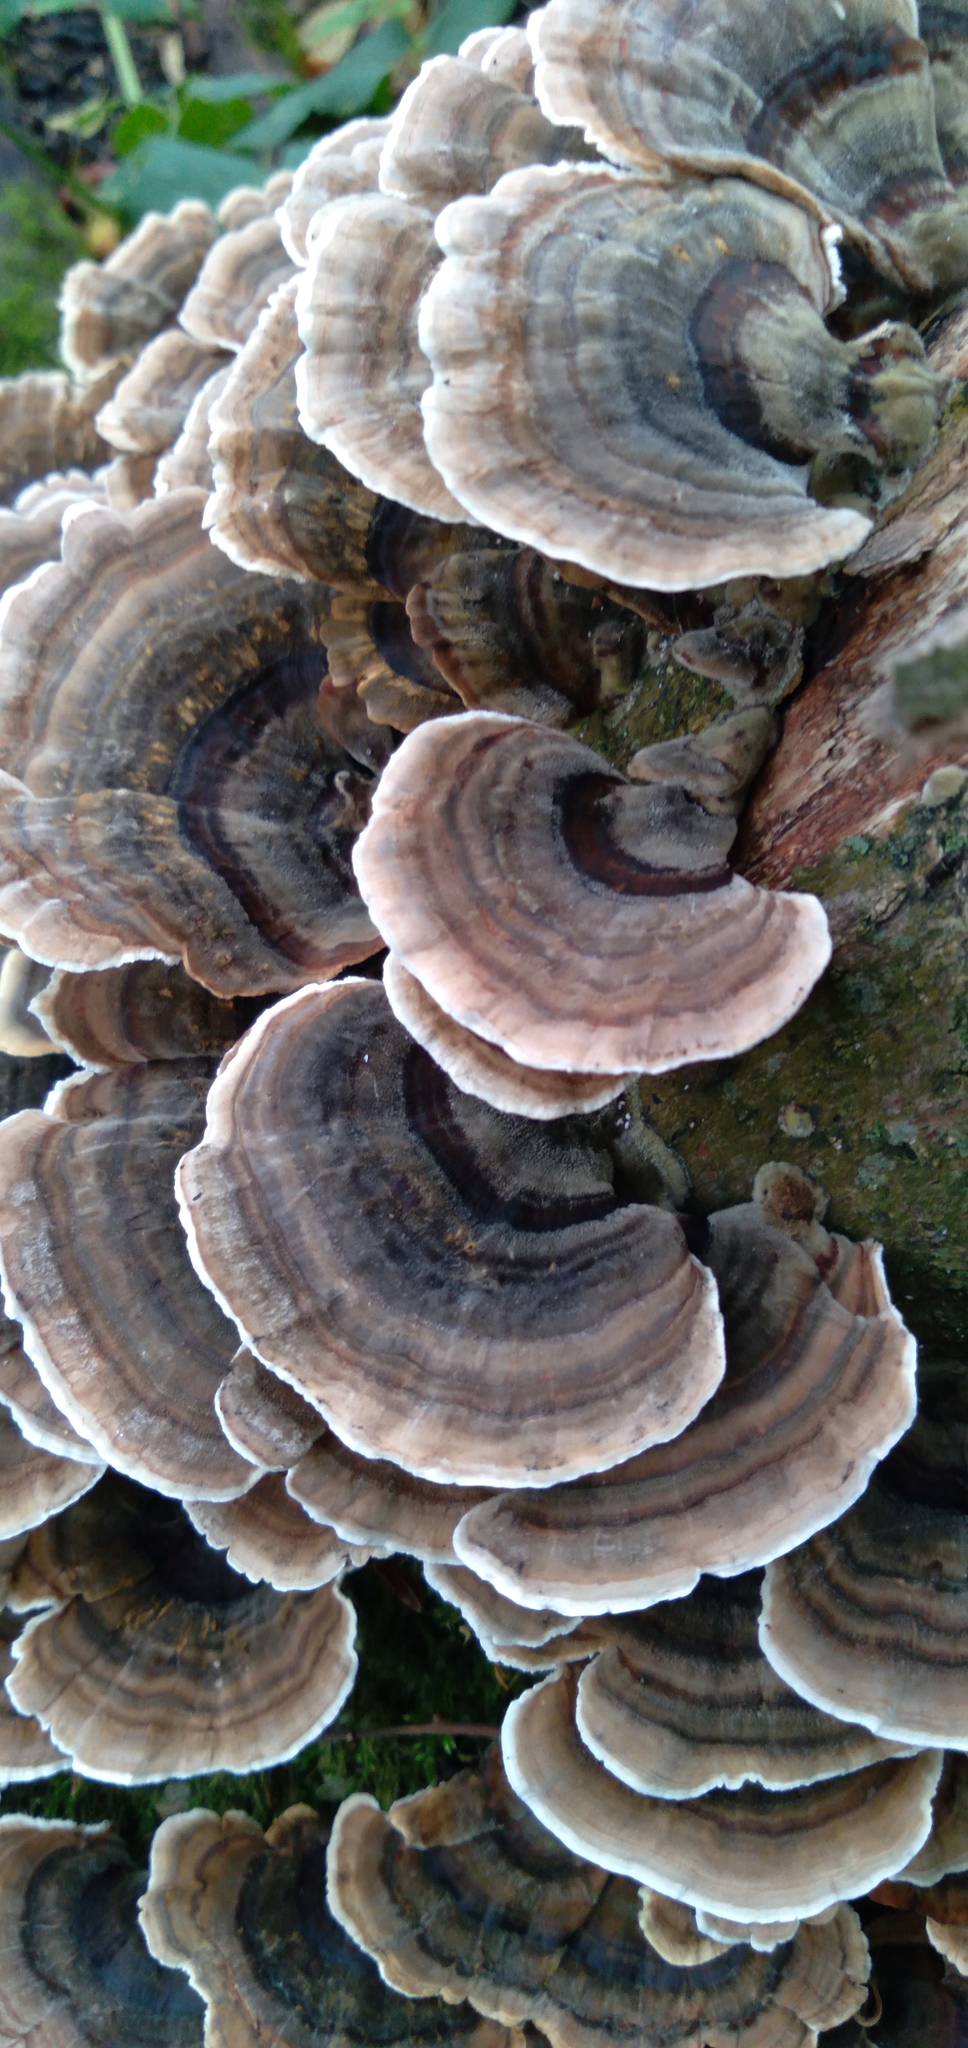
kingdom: Fungi
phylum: Basidiomycota
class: Agaricomycetes
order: Polyporales
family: Polyporaceae
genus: Trametes
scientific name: Trametes versicolor
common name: Turkeytail
